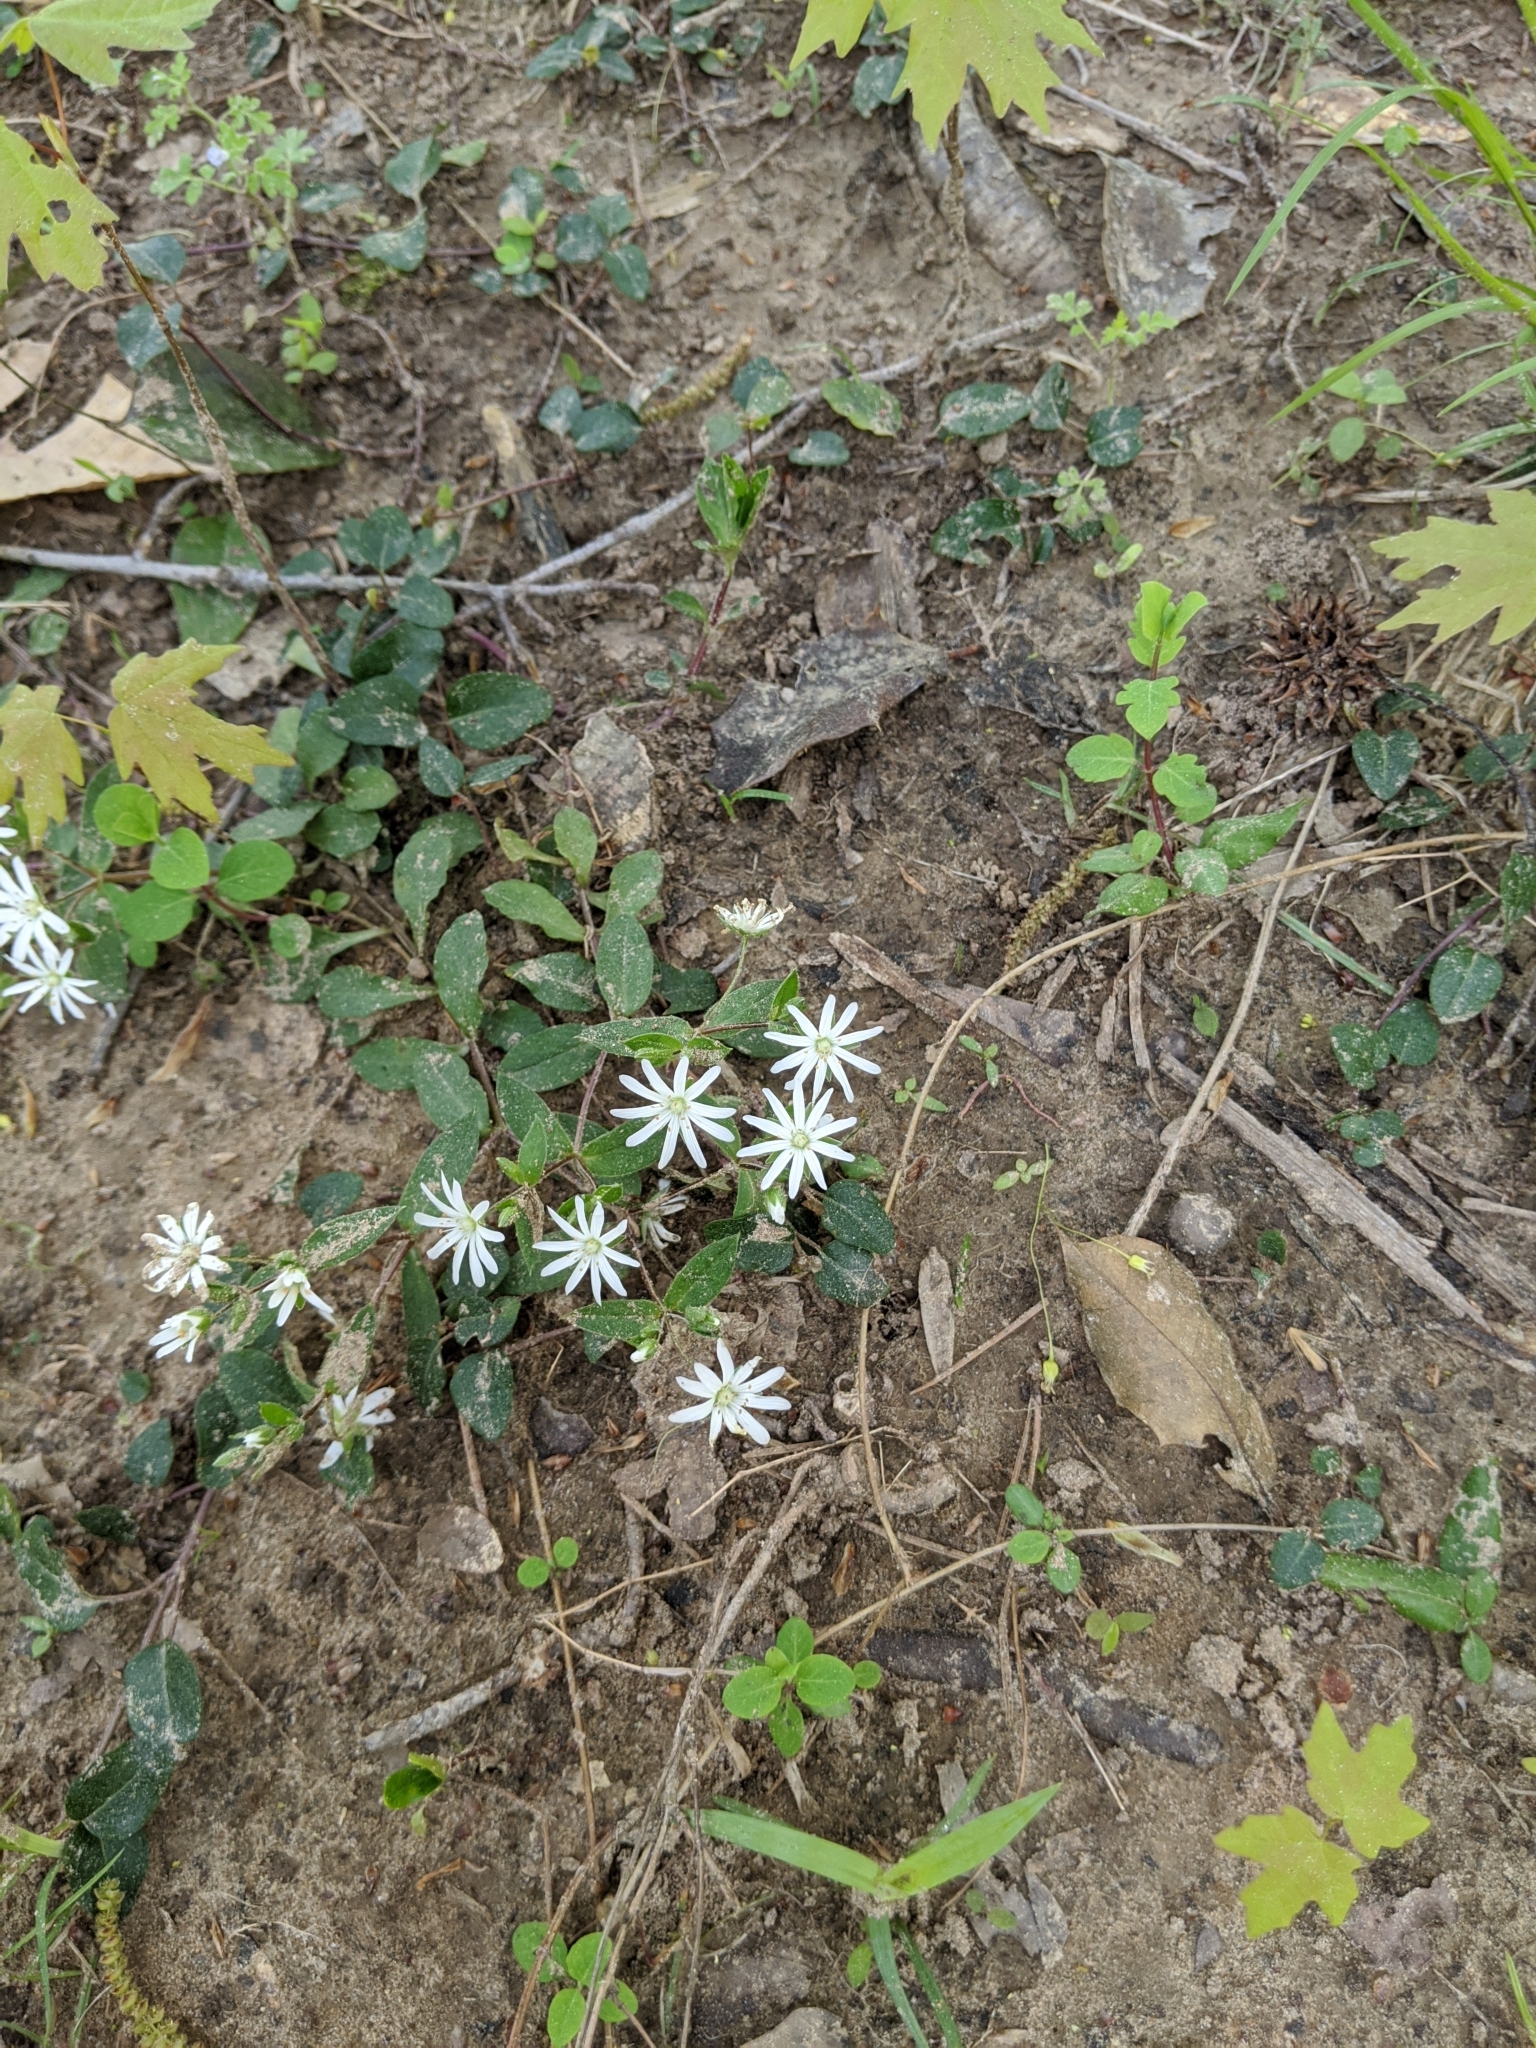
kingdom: Plantae
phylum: Tracheophyta
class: Magnoliopsida
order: Caryophyllales
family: Caryophyllaceae
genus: Stellaria
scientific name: Stellaria pubera
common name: Star chickweed
